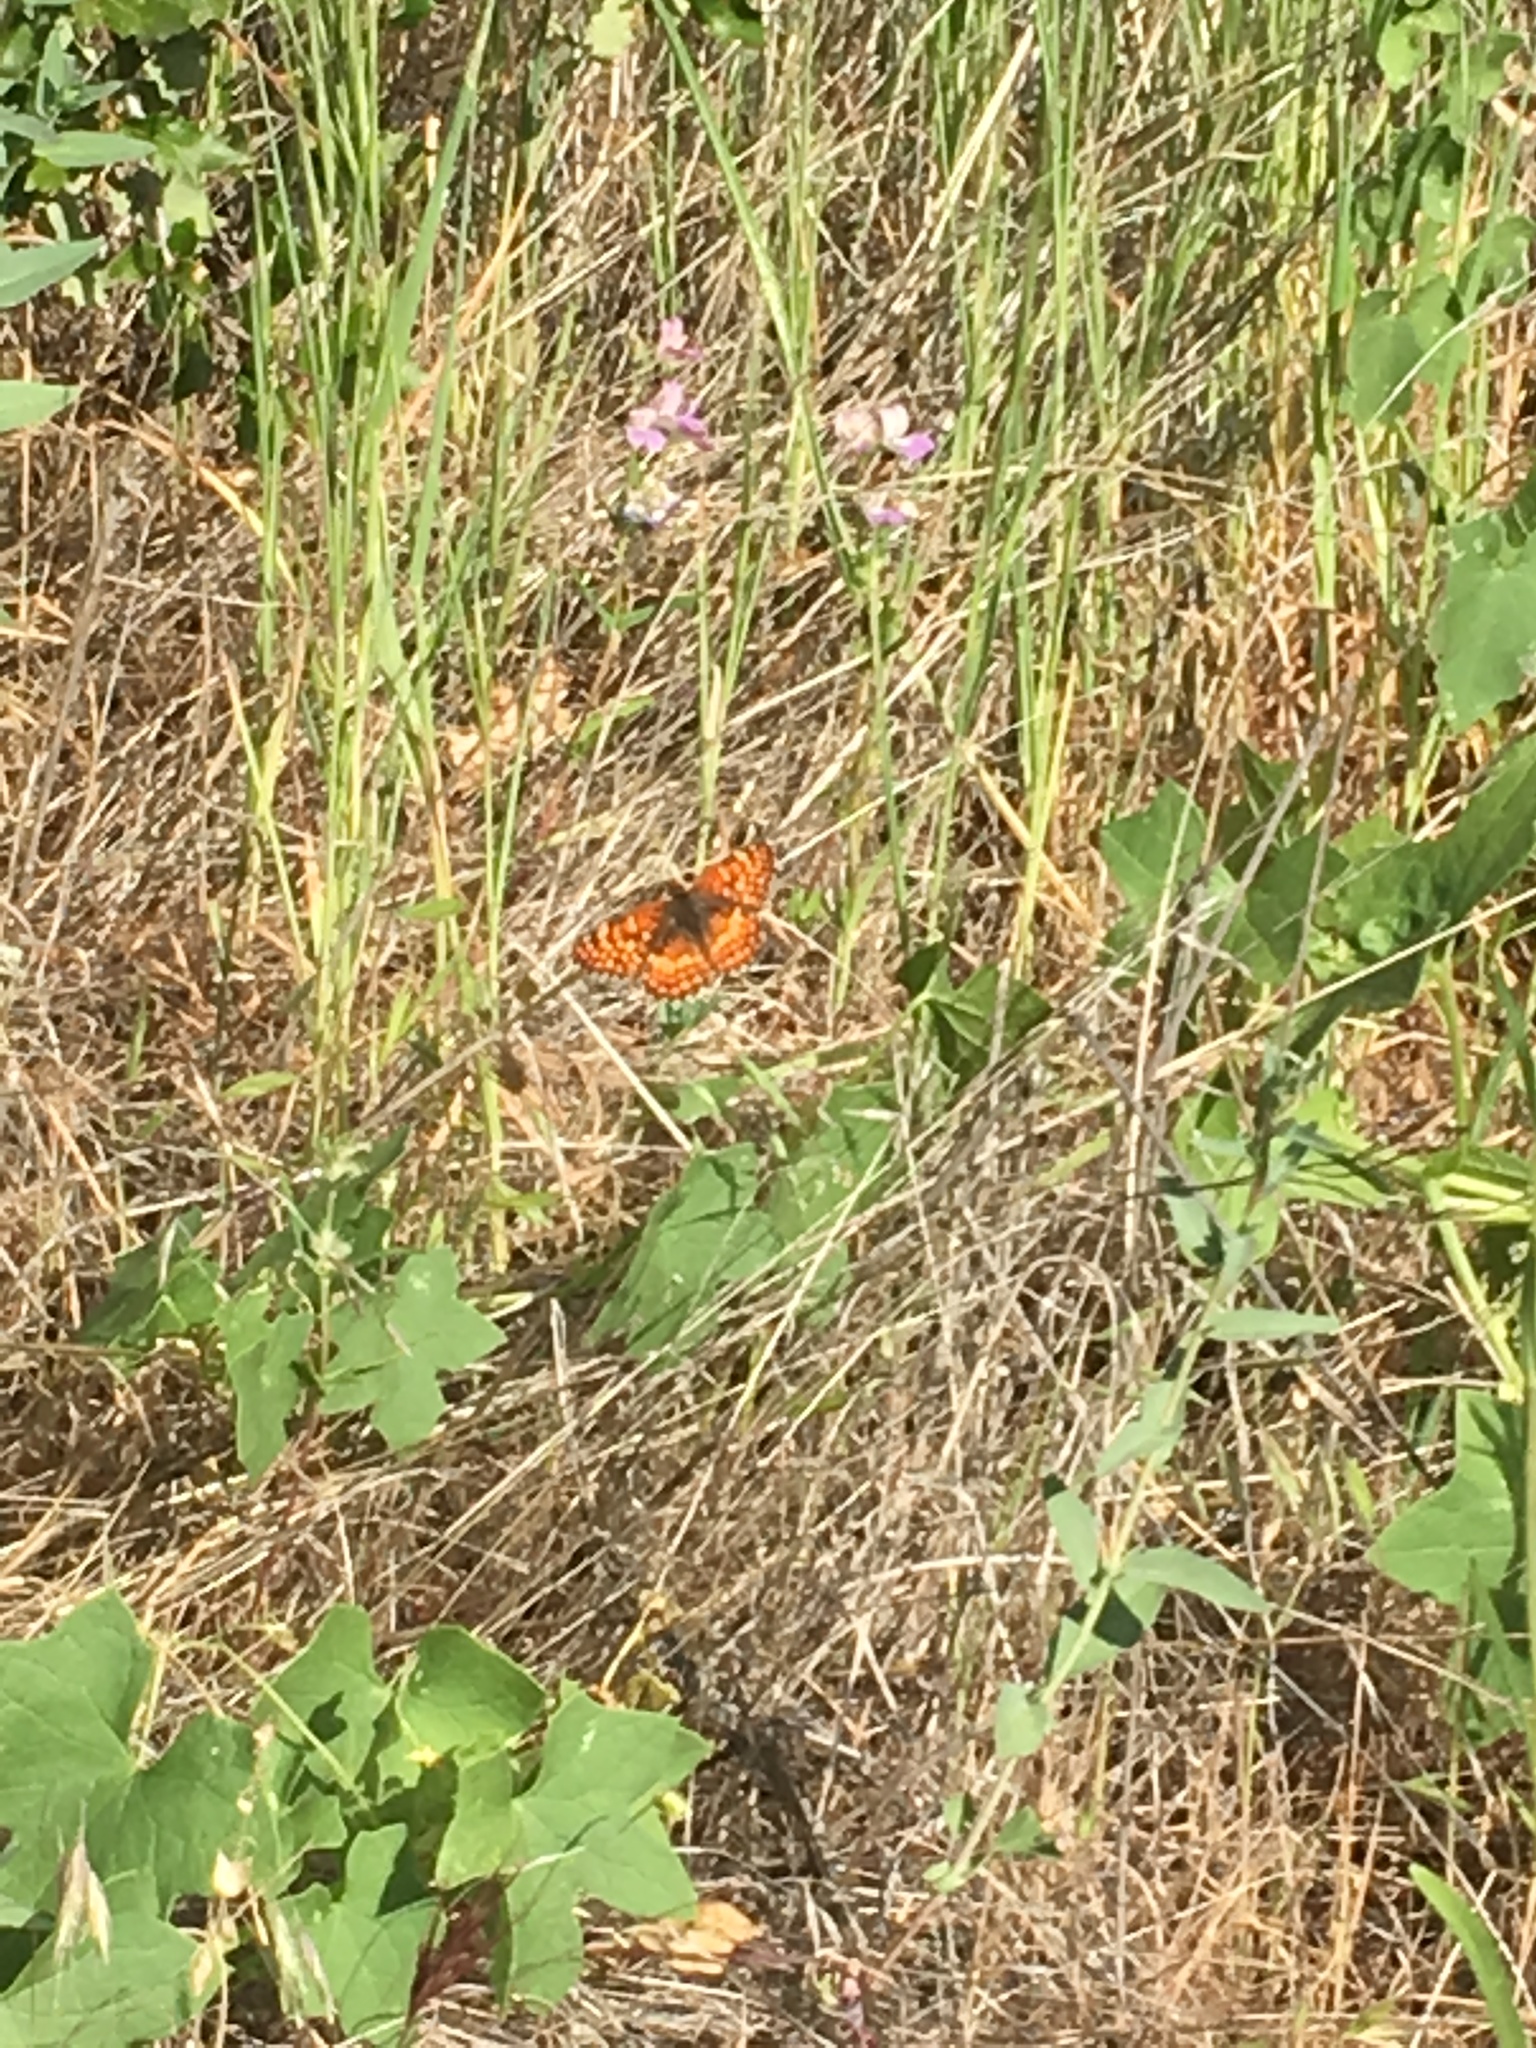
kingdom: Animalia
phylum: Arthropoda
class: Insecta
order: Lepidoptera
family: Nymphalidae
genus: Chlosyne
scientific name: Chlosyne gabbii
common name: Gabb's checkerspot
